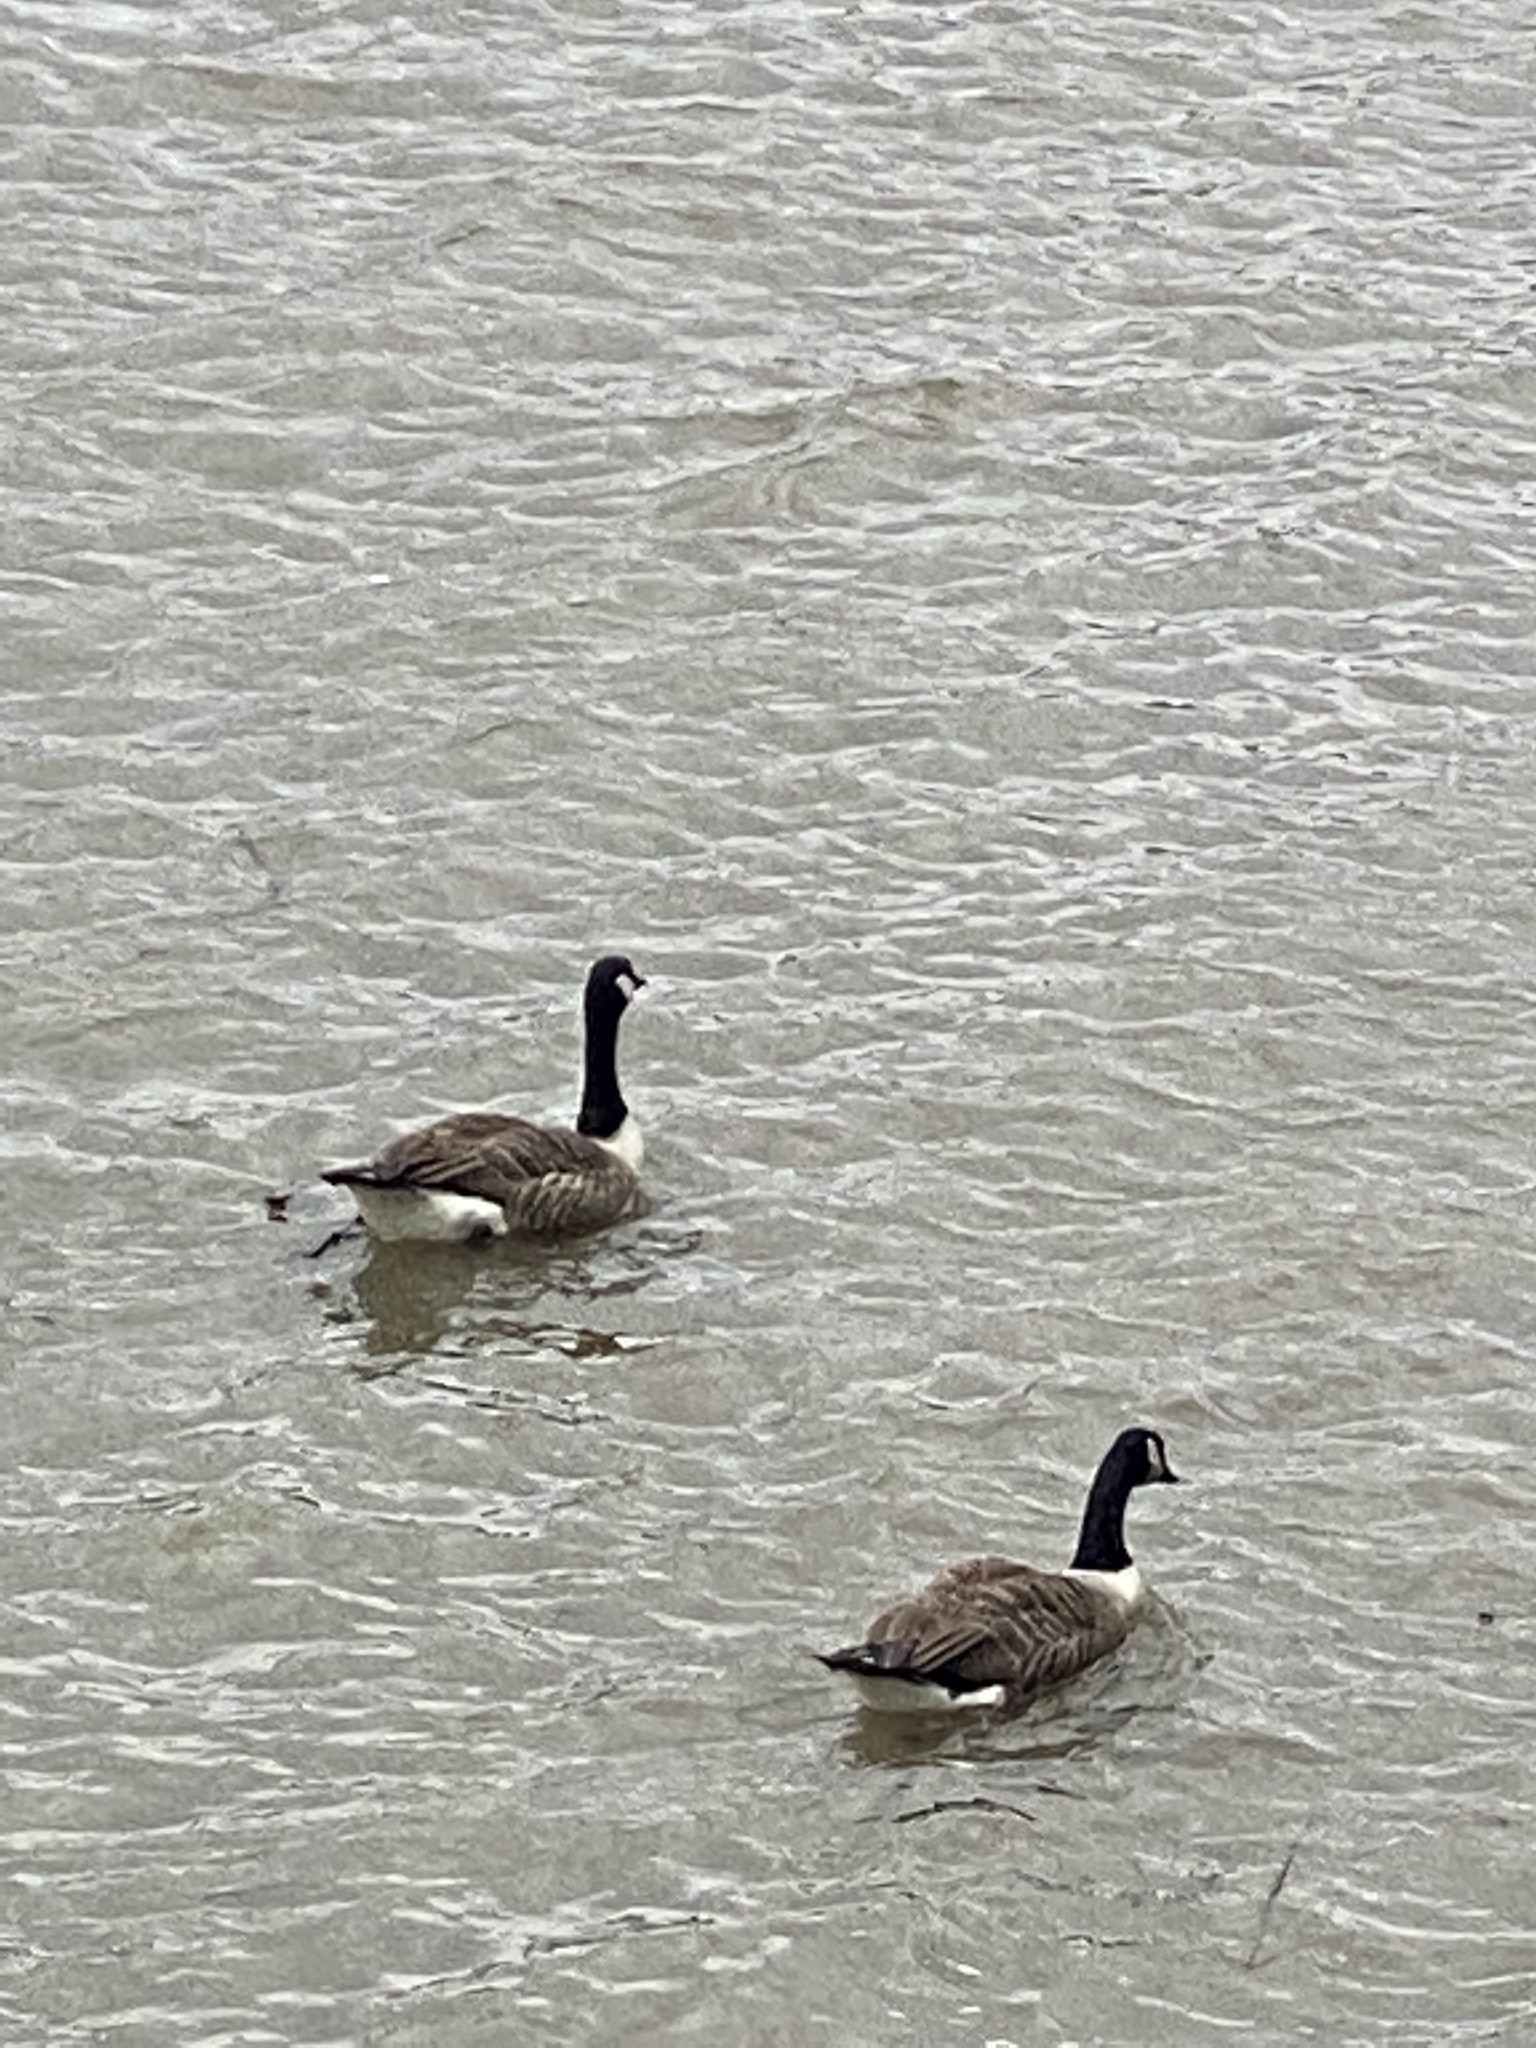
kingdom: Animalia
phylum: Chordata
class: Aves
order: Anseriformes
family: Anatidae
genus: Branta
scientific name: Branta canadensis
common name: Canada goose
